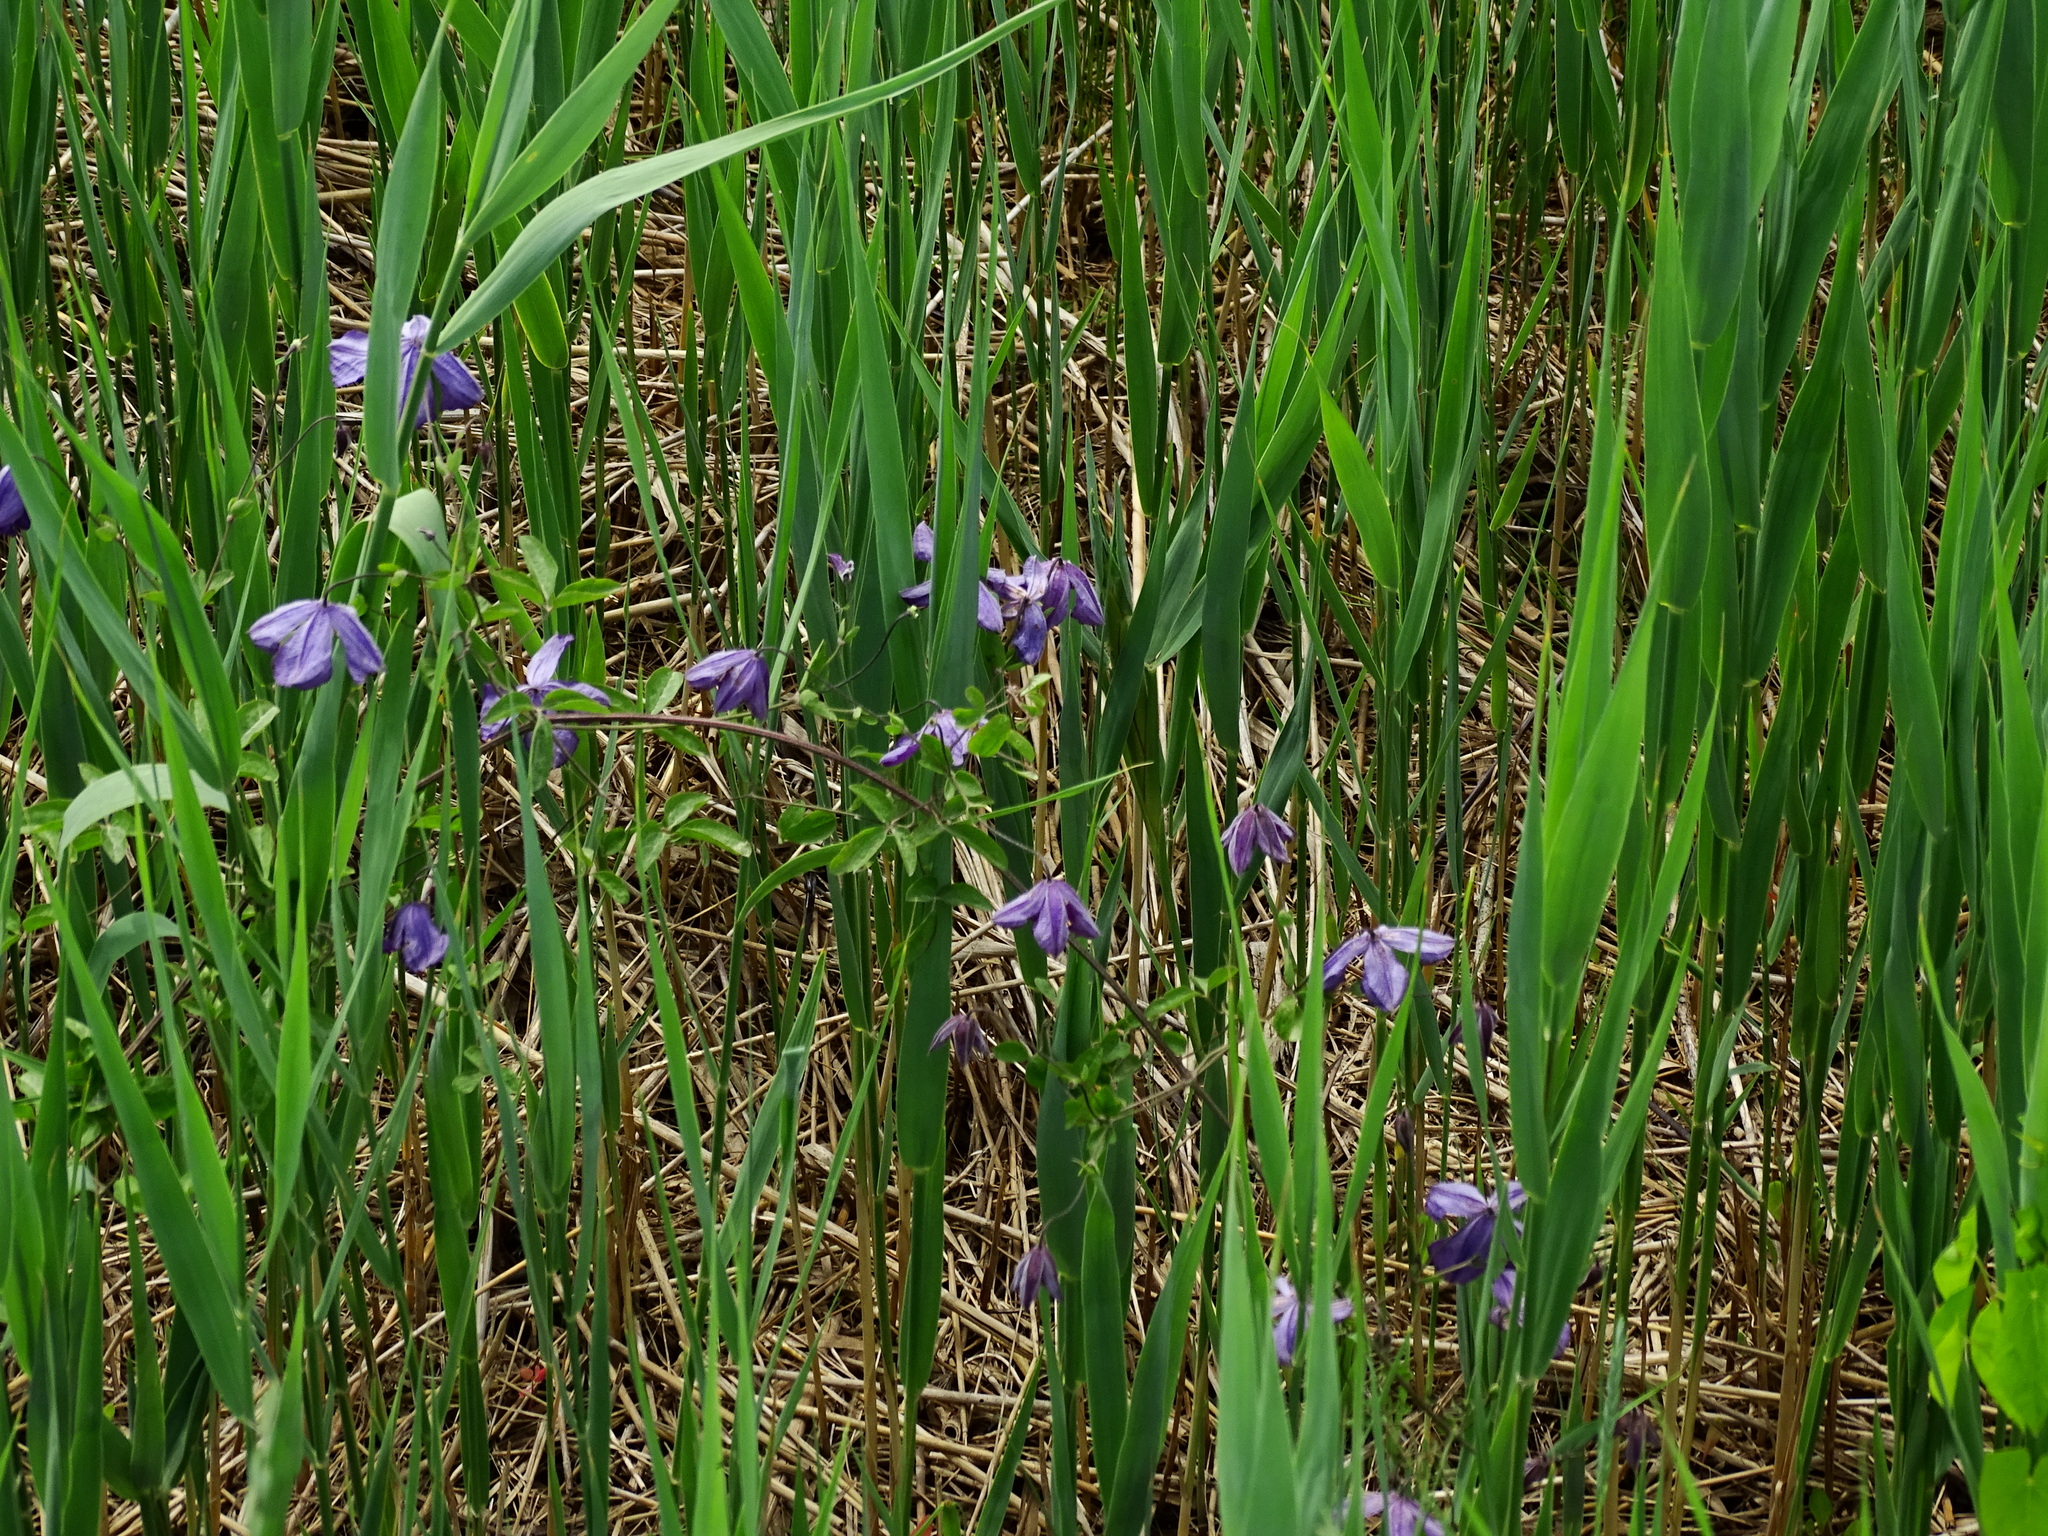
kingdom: Plantae
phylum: Tracheophyta
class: Magnoliopsida
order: Ranunculales
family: Ranunculaceae
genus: Clematis
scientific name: Clematis viticella
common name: Purple clematis
